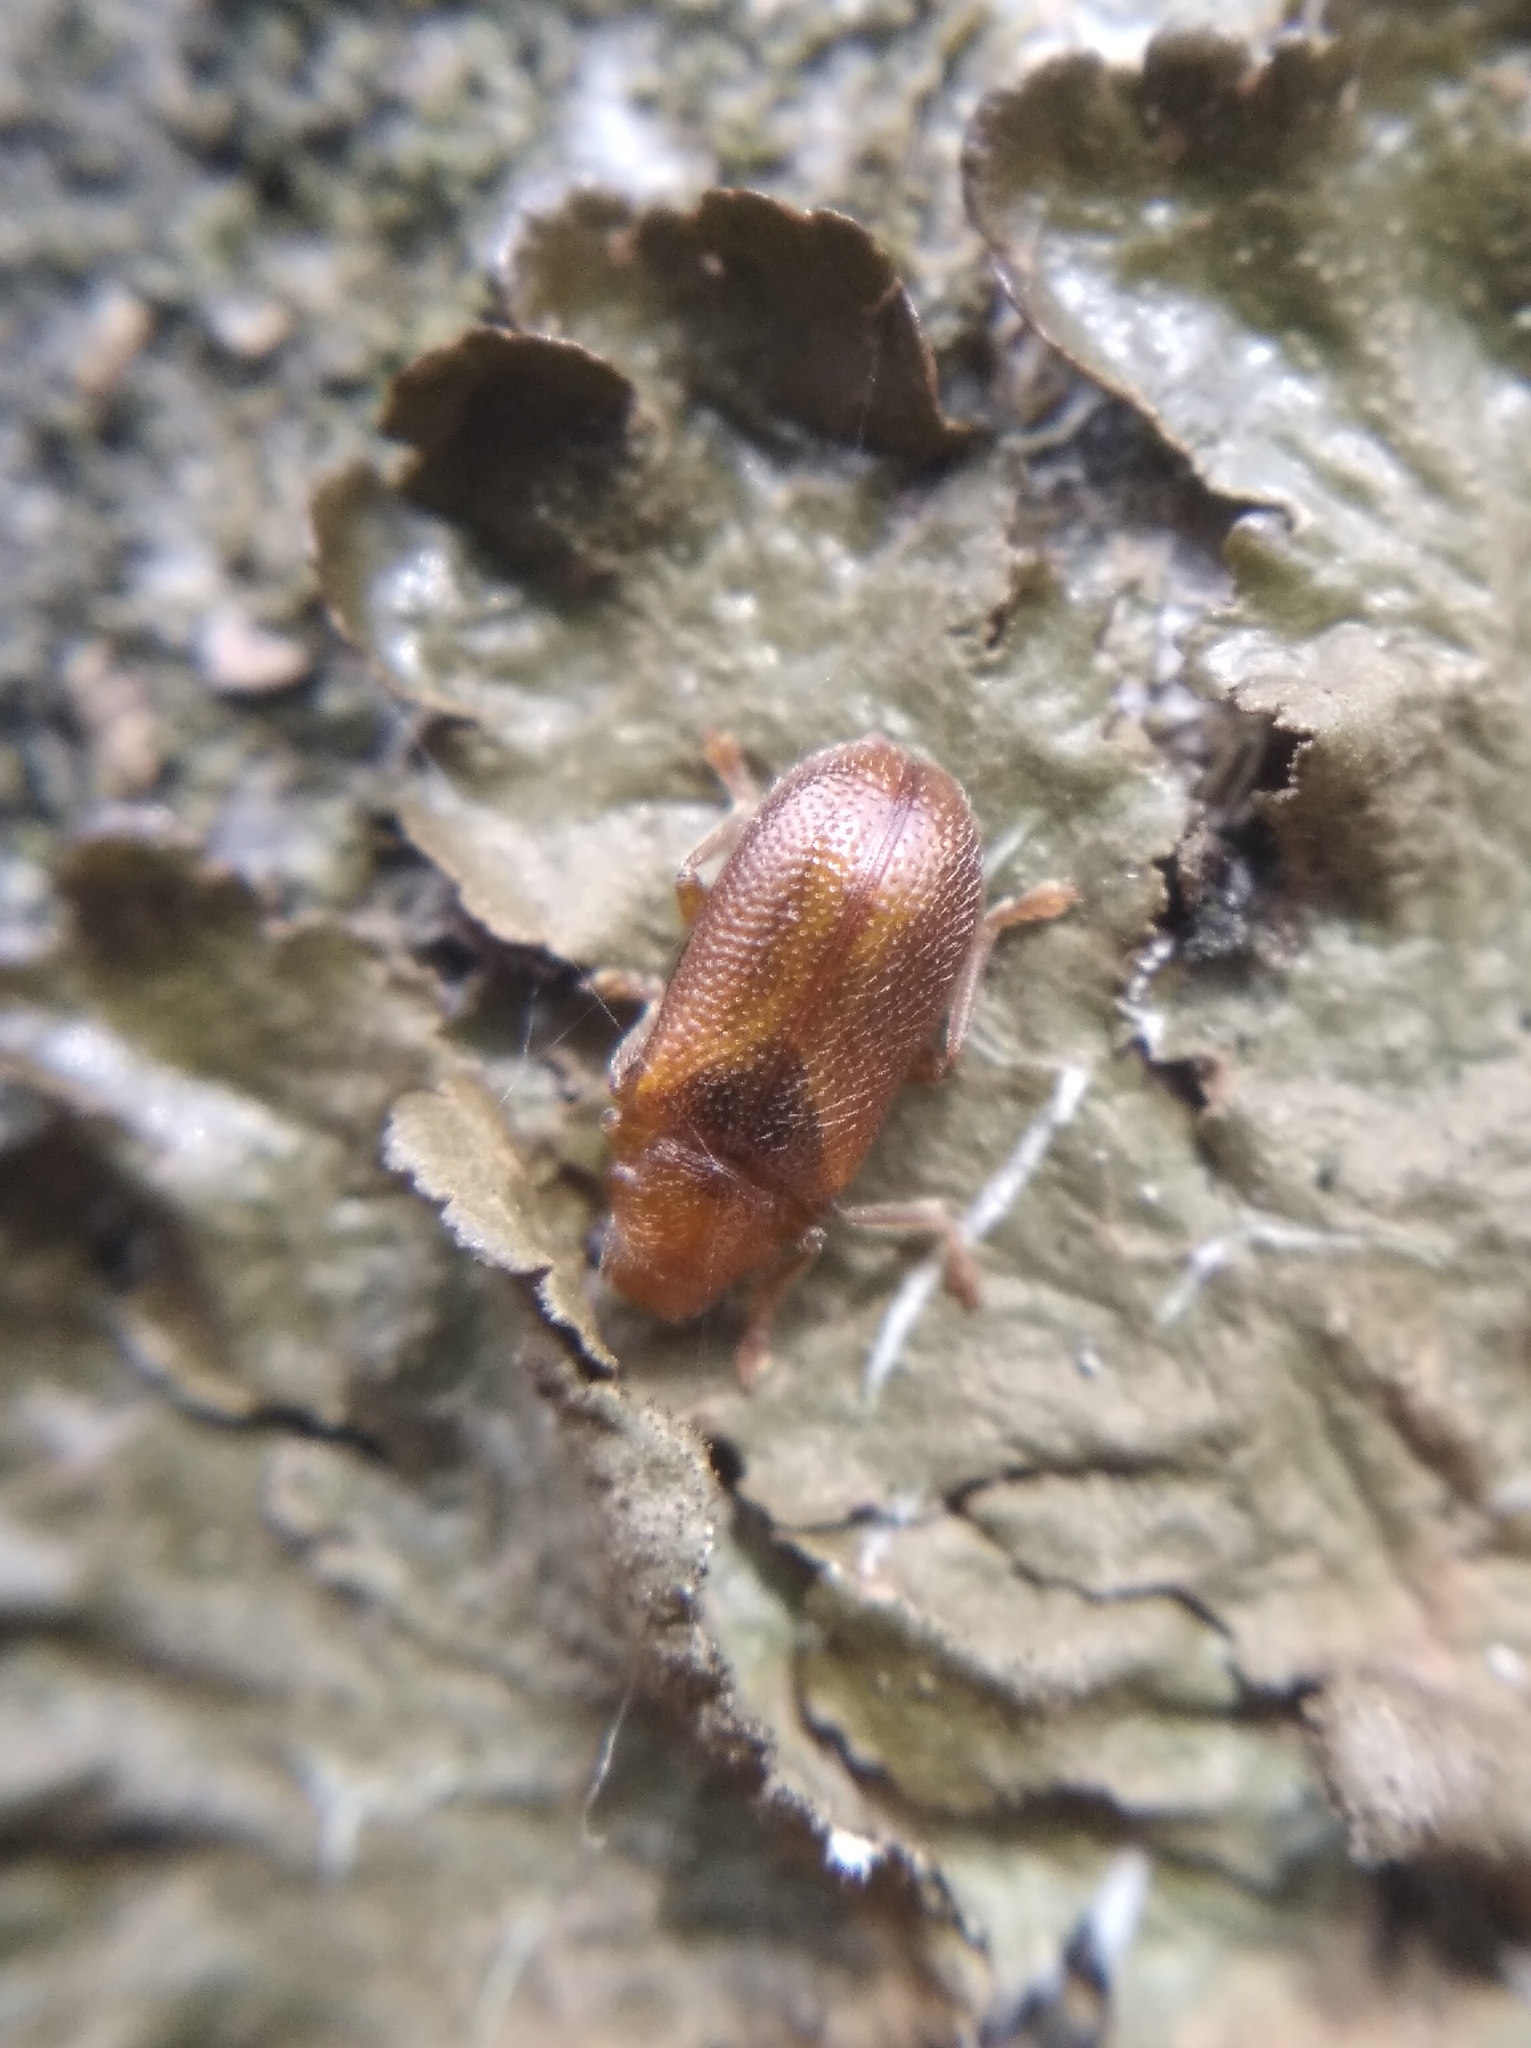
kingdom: Animalia
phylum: Arthropoda
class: Insecta
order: Coleoptera
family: Megalopodidae
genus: Zeugophora
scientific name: Zeugophora turneri
